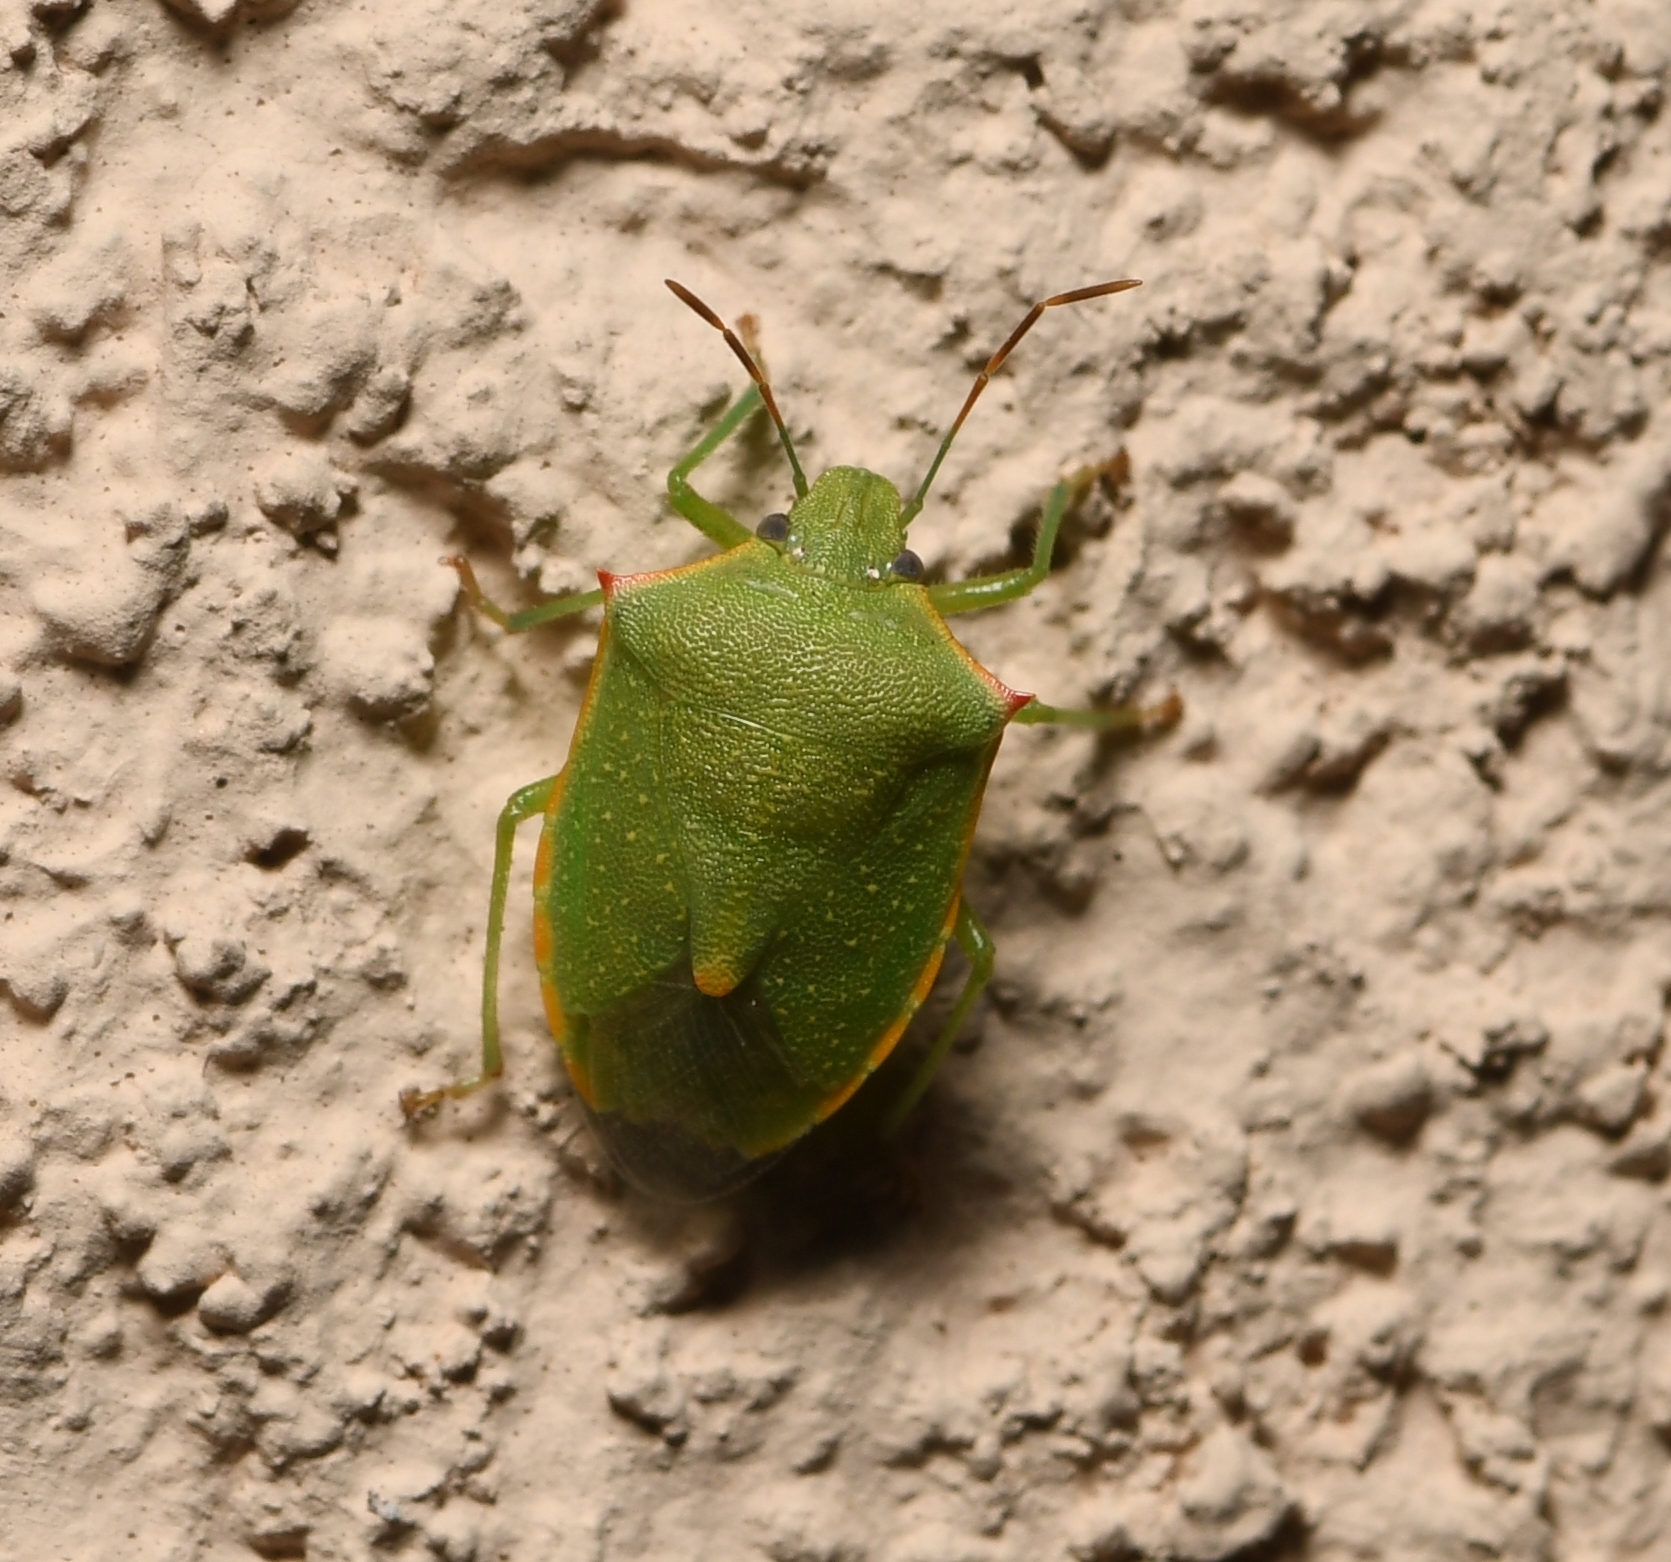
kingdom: Animalia
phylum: Arthropoda
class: Insecta
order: Hemiptera
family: Pentatomidae
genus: Thyanta
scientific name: Thyanta custator
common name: Stink bug
